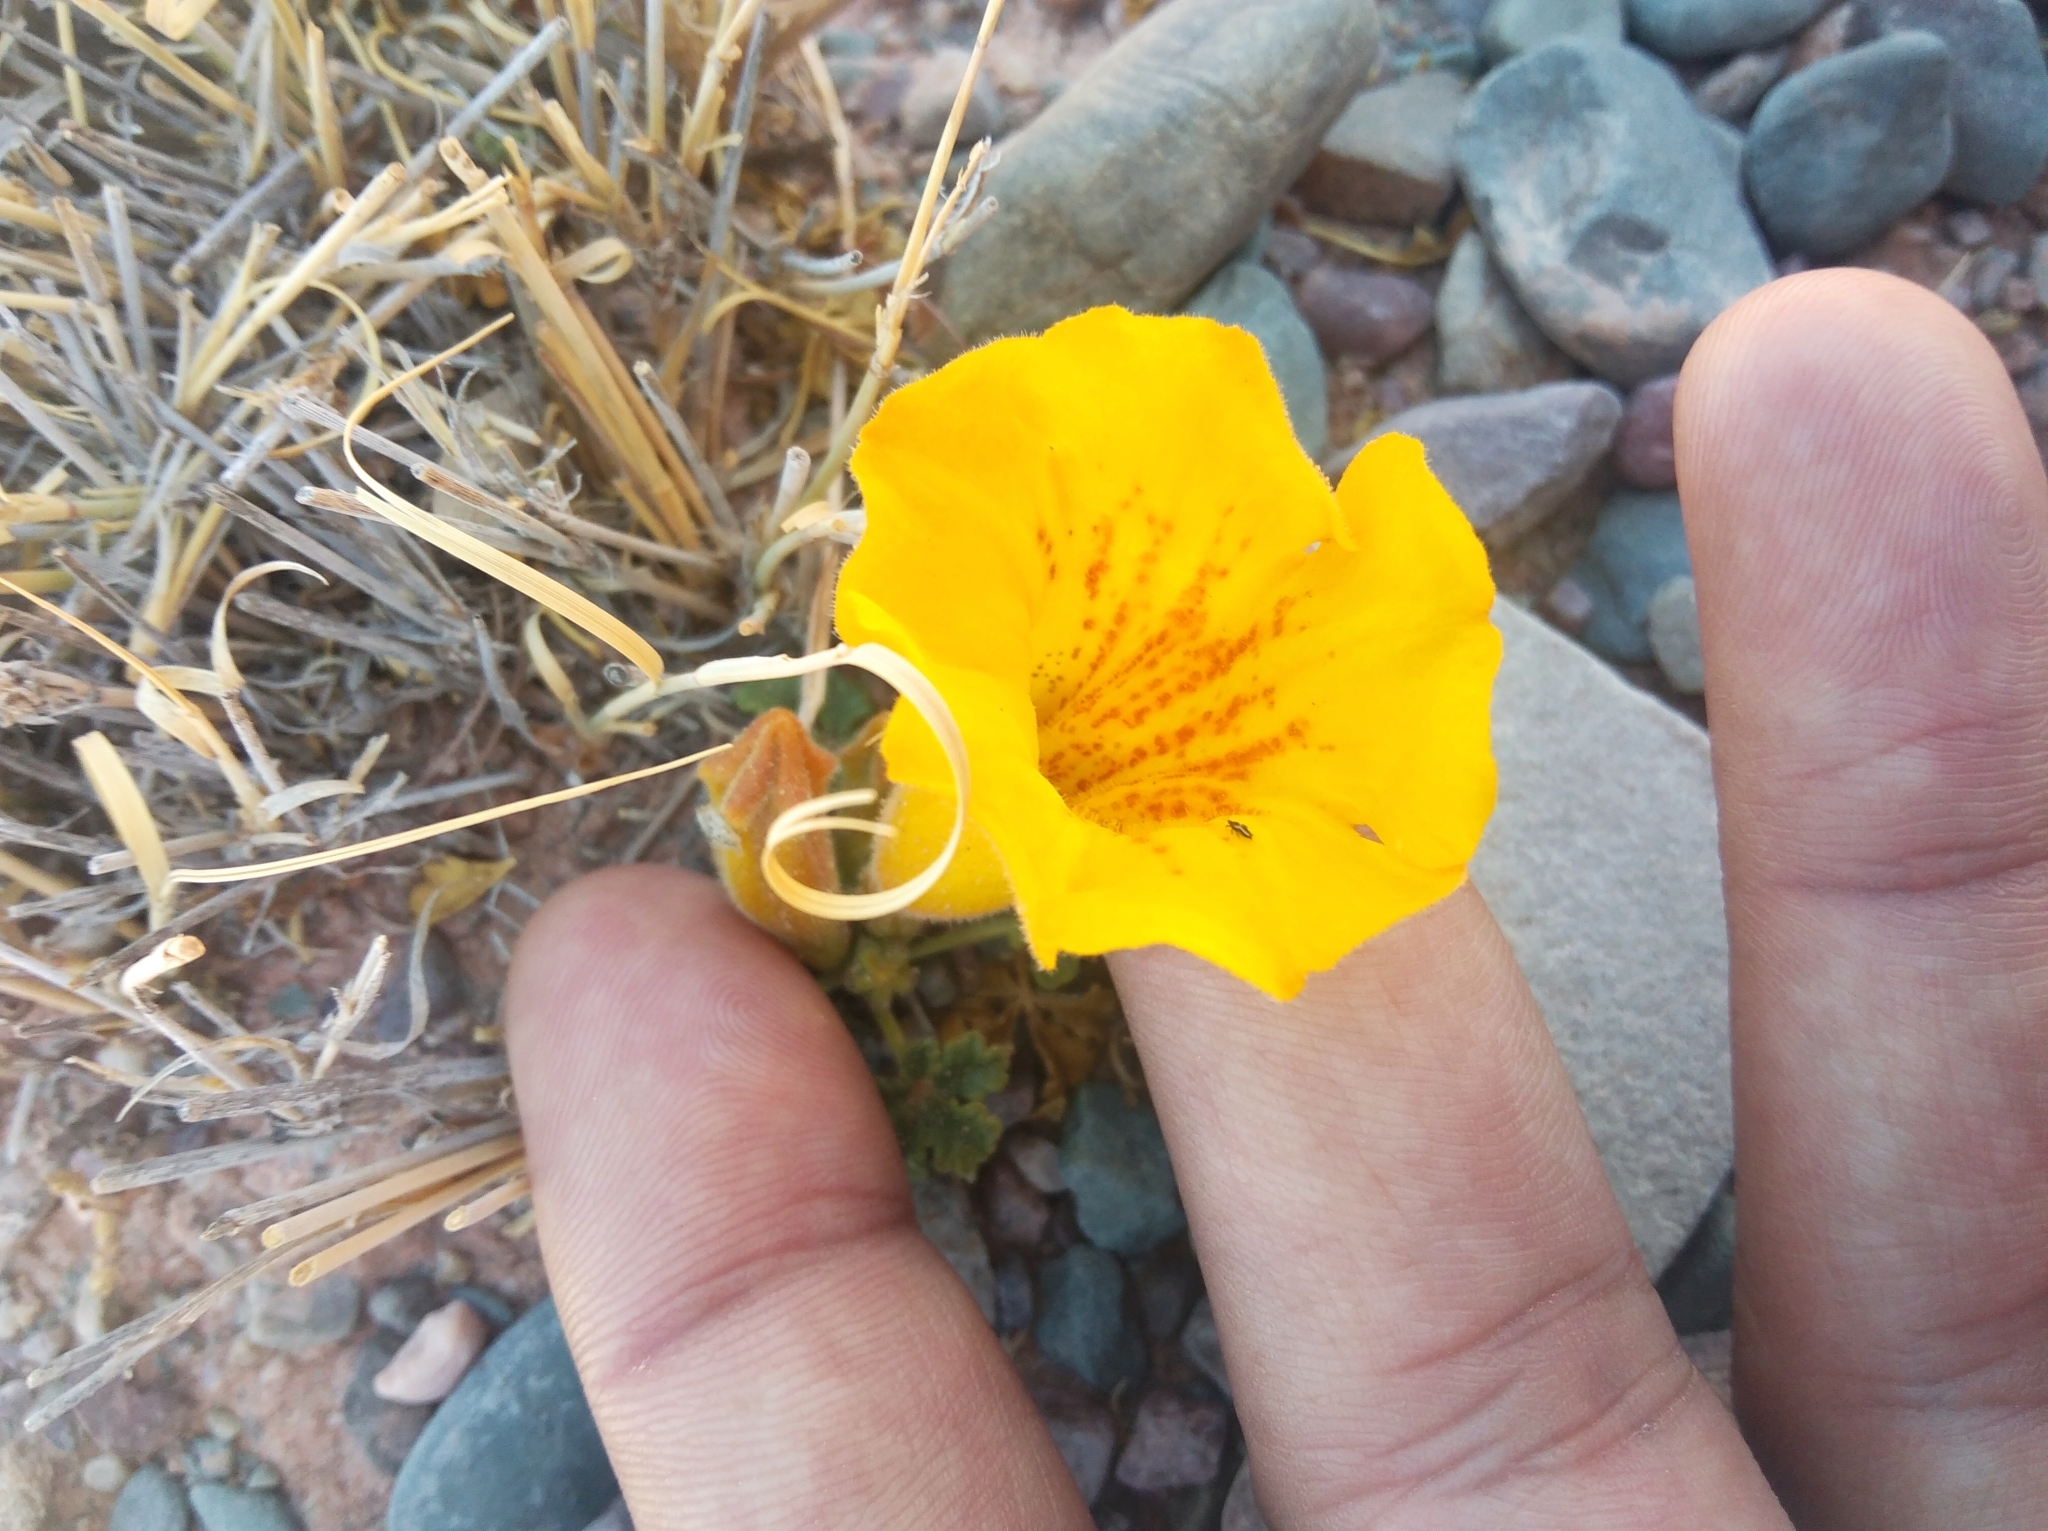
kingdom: Plantae
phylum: Tracheophyta
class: Magnoliopsida
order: Lamiales
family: Bignoniaceae
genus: Argylia
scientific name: Argylia uspallatensis
